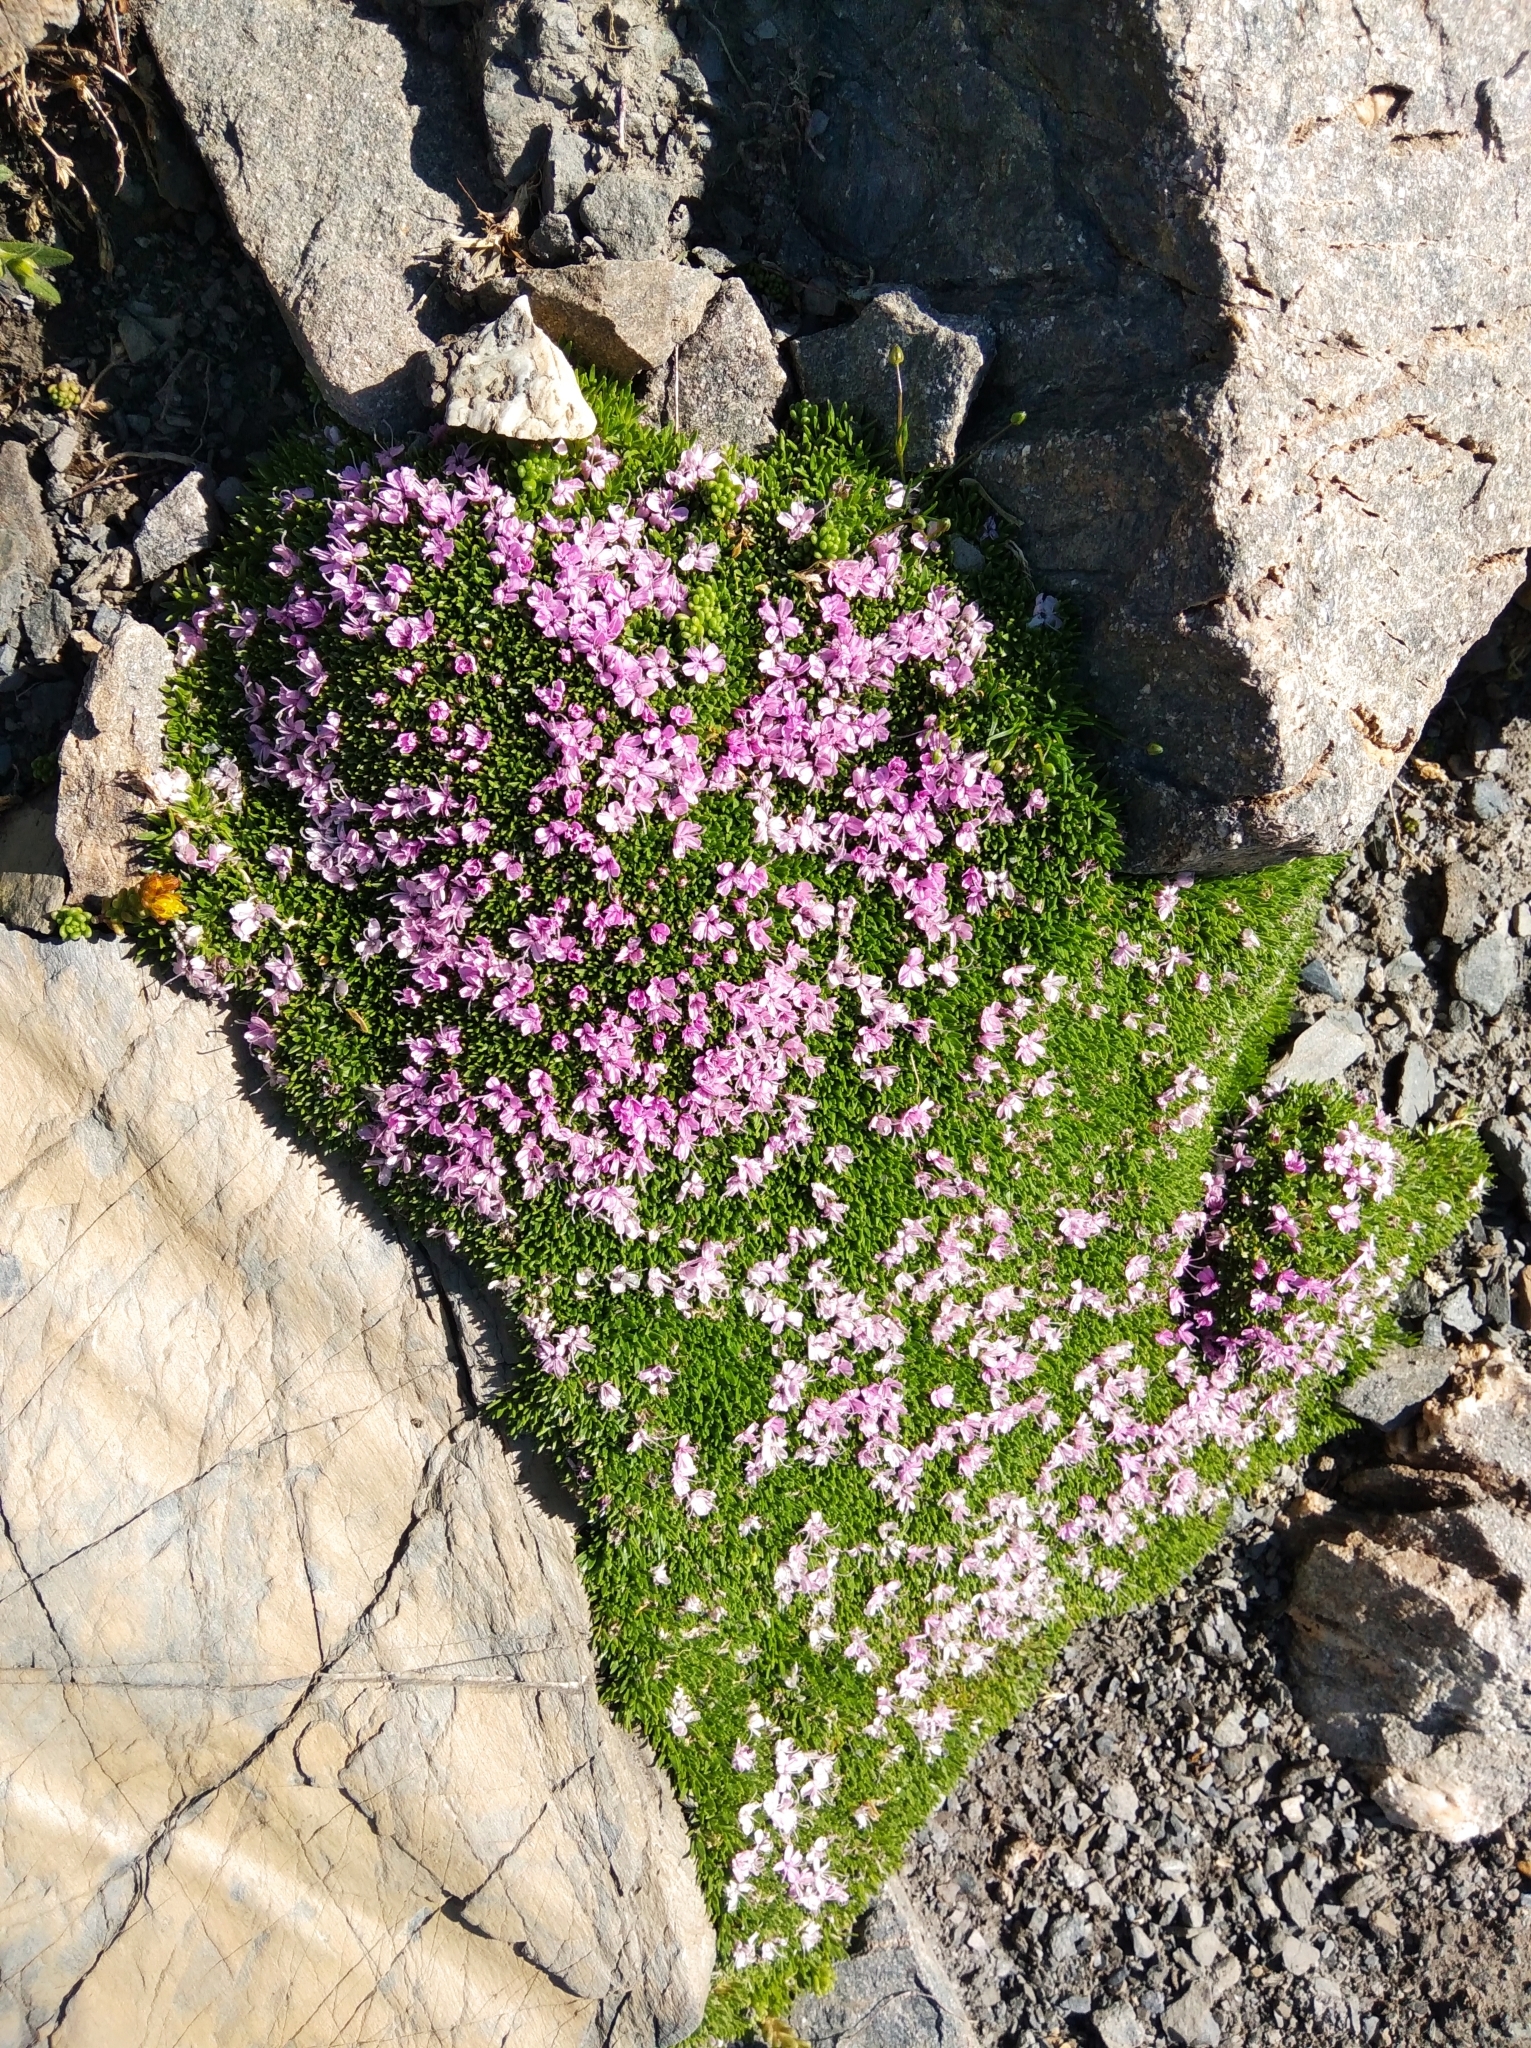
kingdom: Plantae
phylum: Tracheophyta
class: Magnoliopsida
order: Caryophyllales
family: Caryophyllaceae
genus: Silene
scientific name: Silene acaulis
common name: Moss campion
